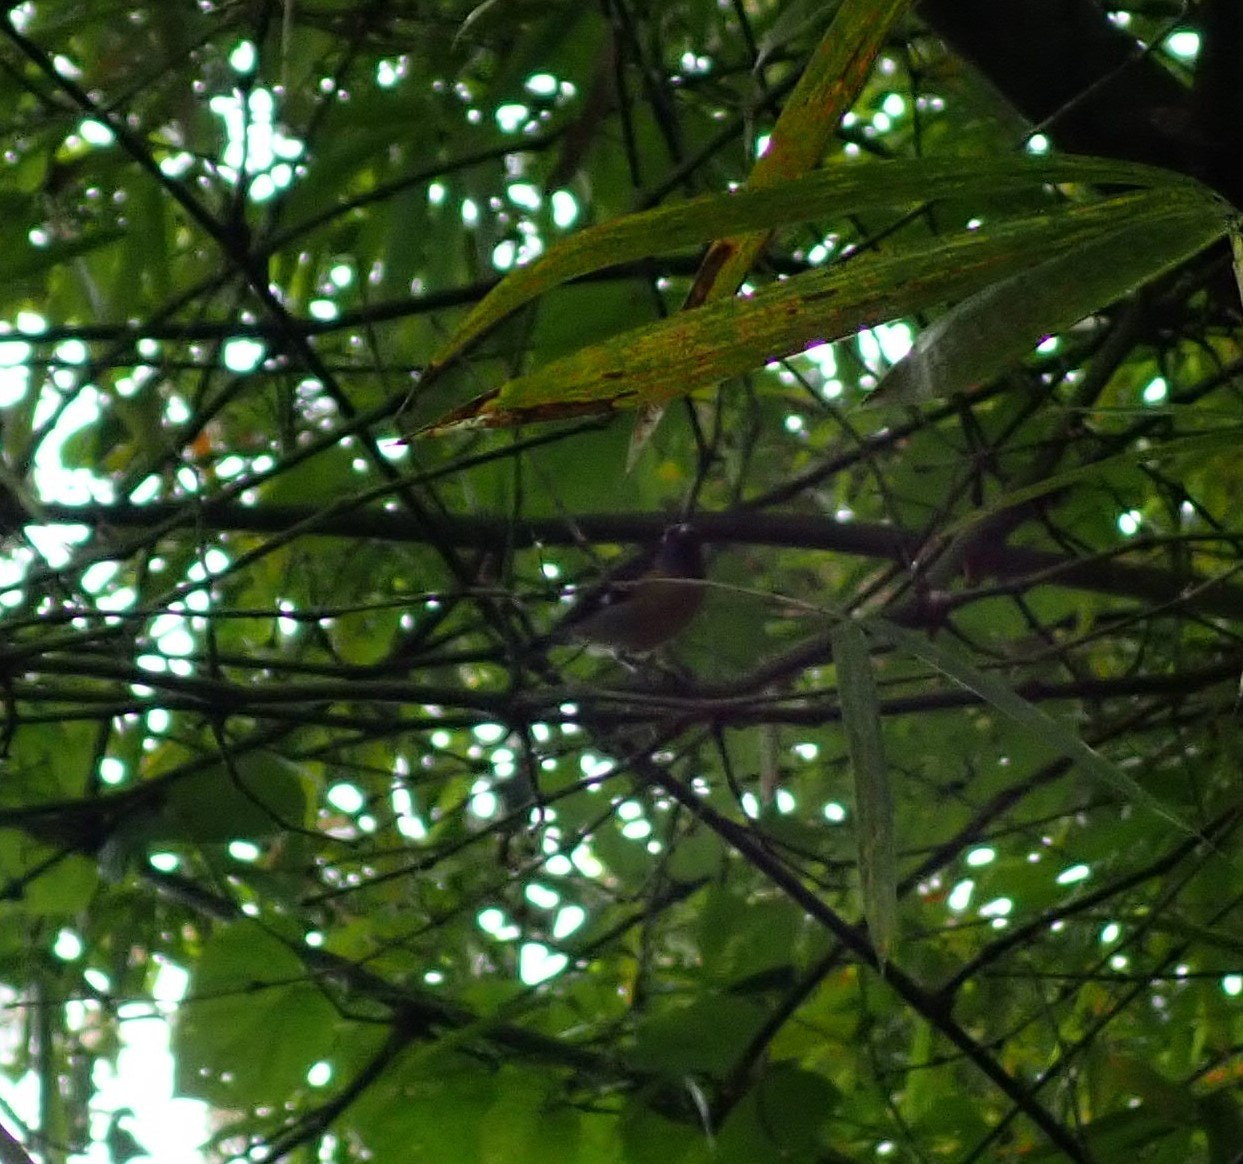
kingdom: Animalia
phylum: Chordata
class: Aves
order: Passeriformes
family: Thraupidae
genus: Coereba
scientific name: Coereba flaveola
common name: Bananaquit
